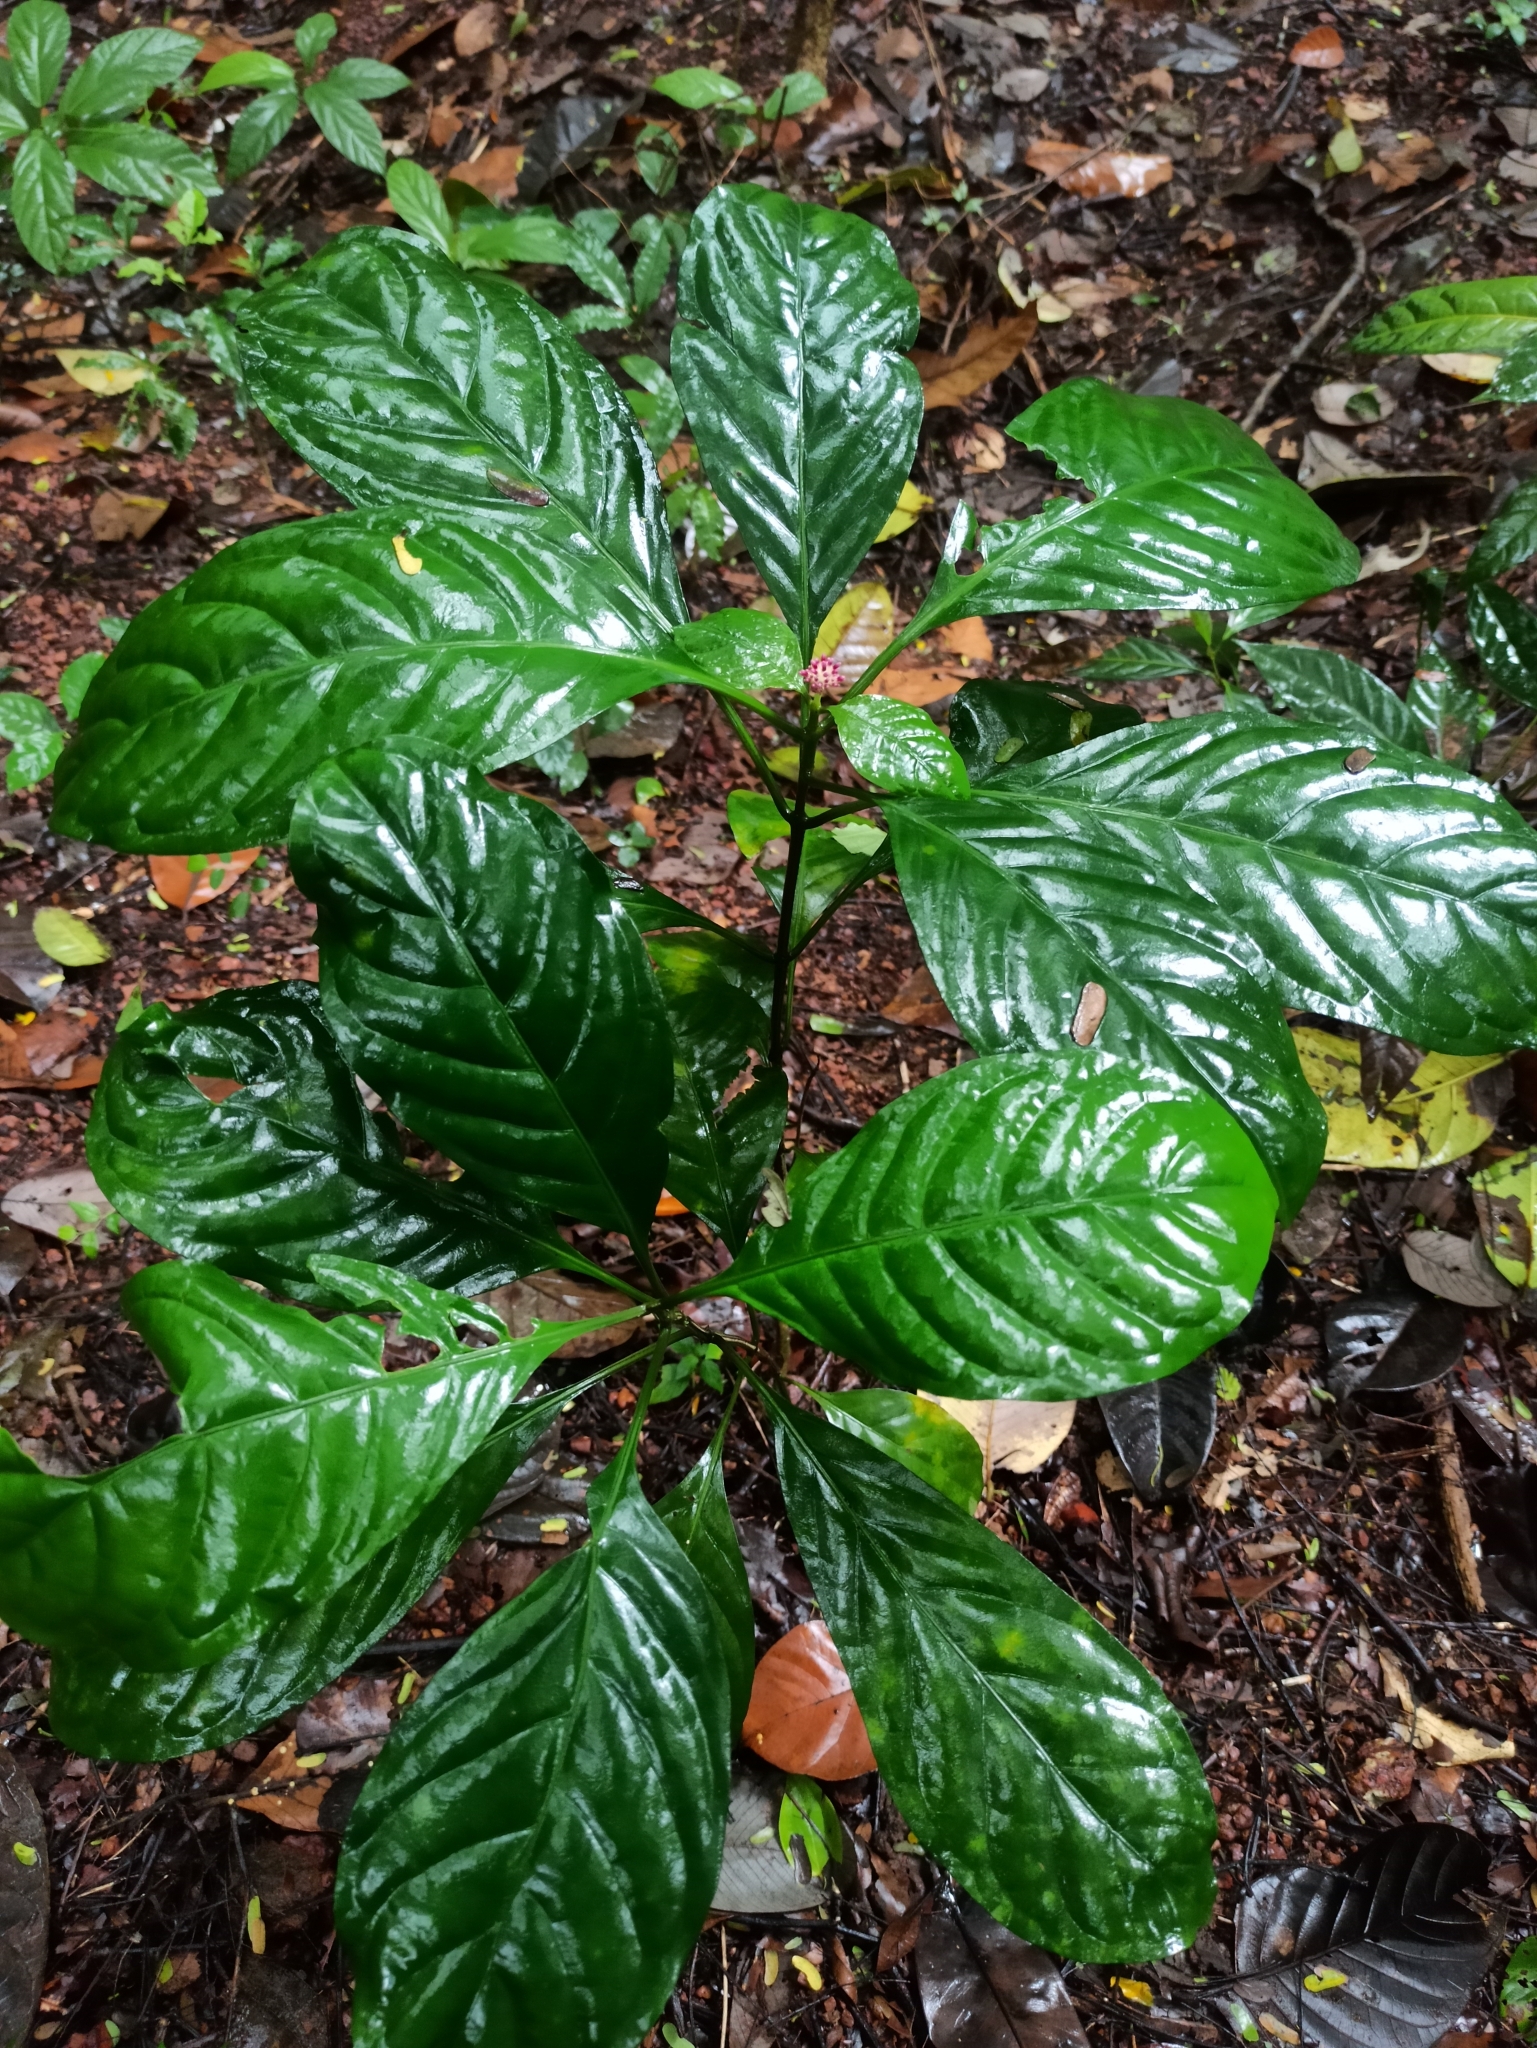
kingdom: Plantae
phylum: Tracheophyta
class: Magnoliopsida
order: Gentianales
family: Rubiaceae
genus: Chassalia
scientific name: Chassalia curviflora
